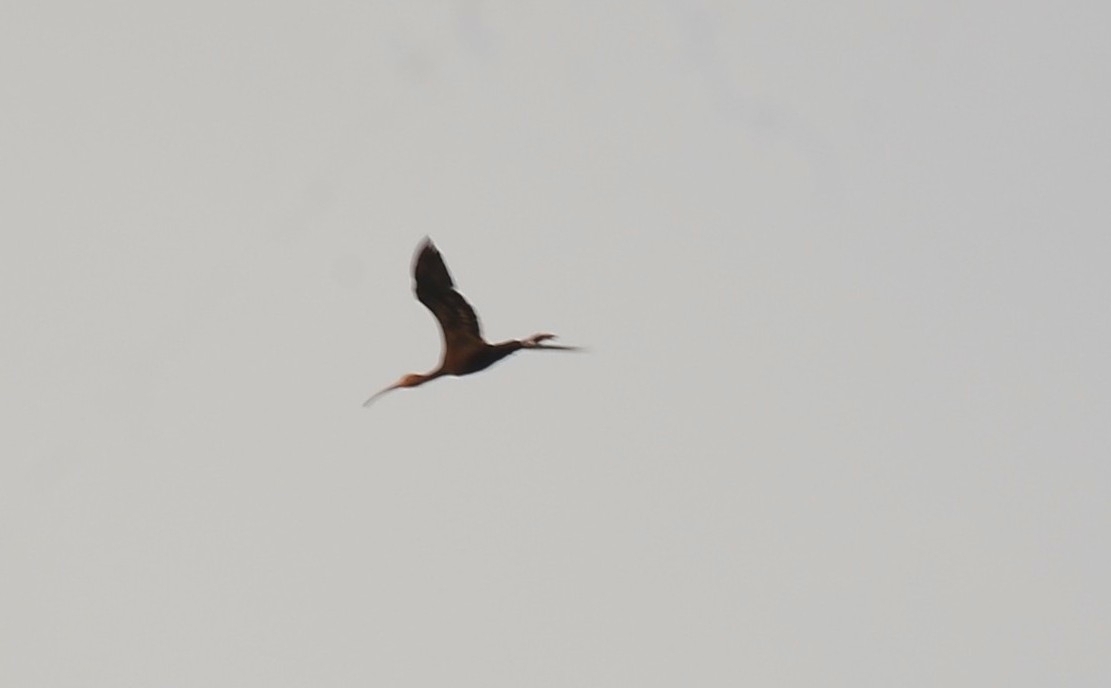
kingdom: Animalia
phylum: Chordata
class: Aves
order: Pelecaniformes
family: Threskiornithidae
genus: Plegadis
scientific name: Plegadis falcinellus
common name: Glossy ibis
